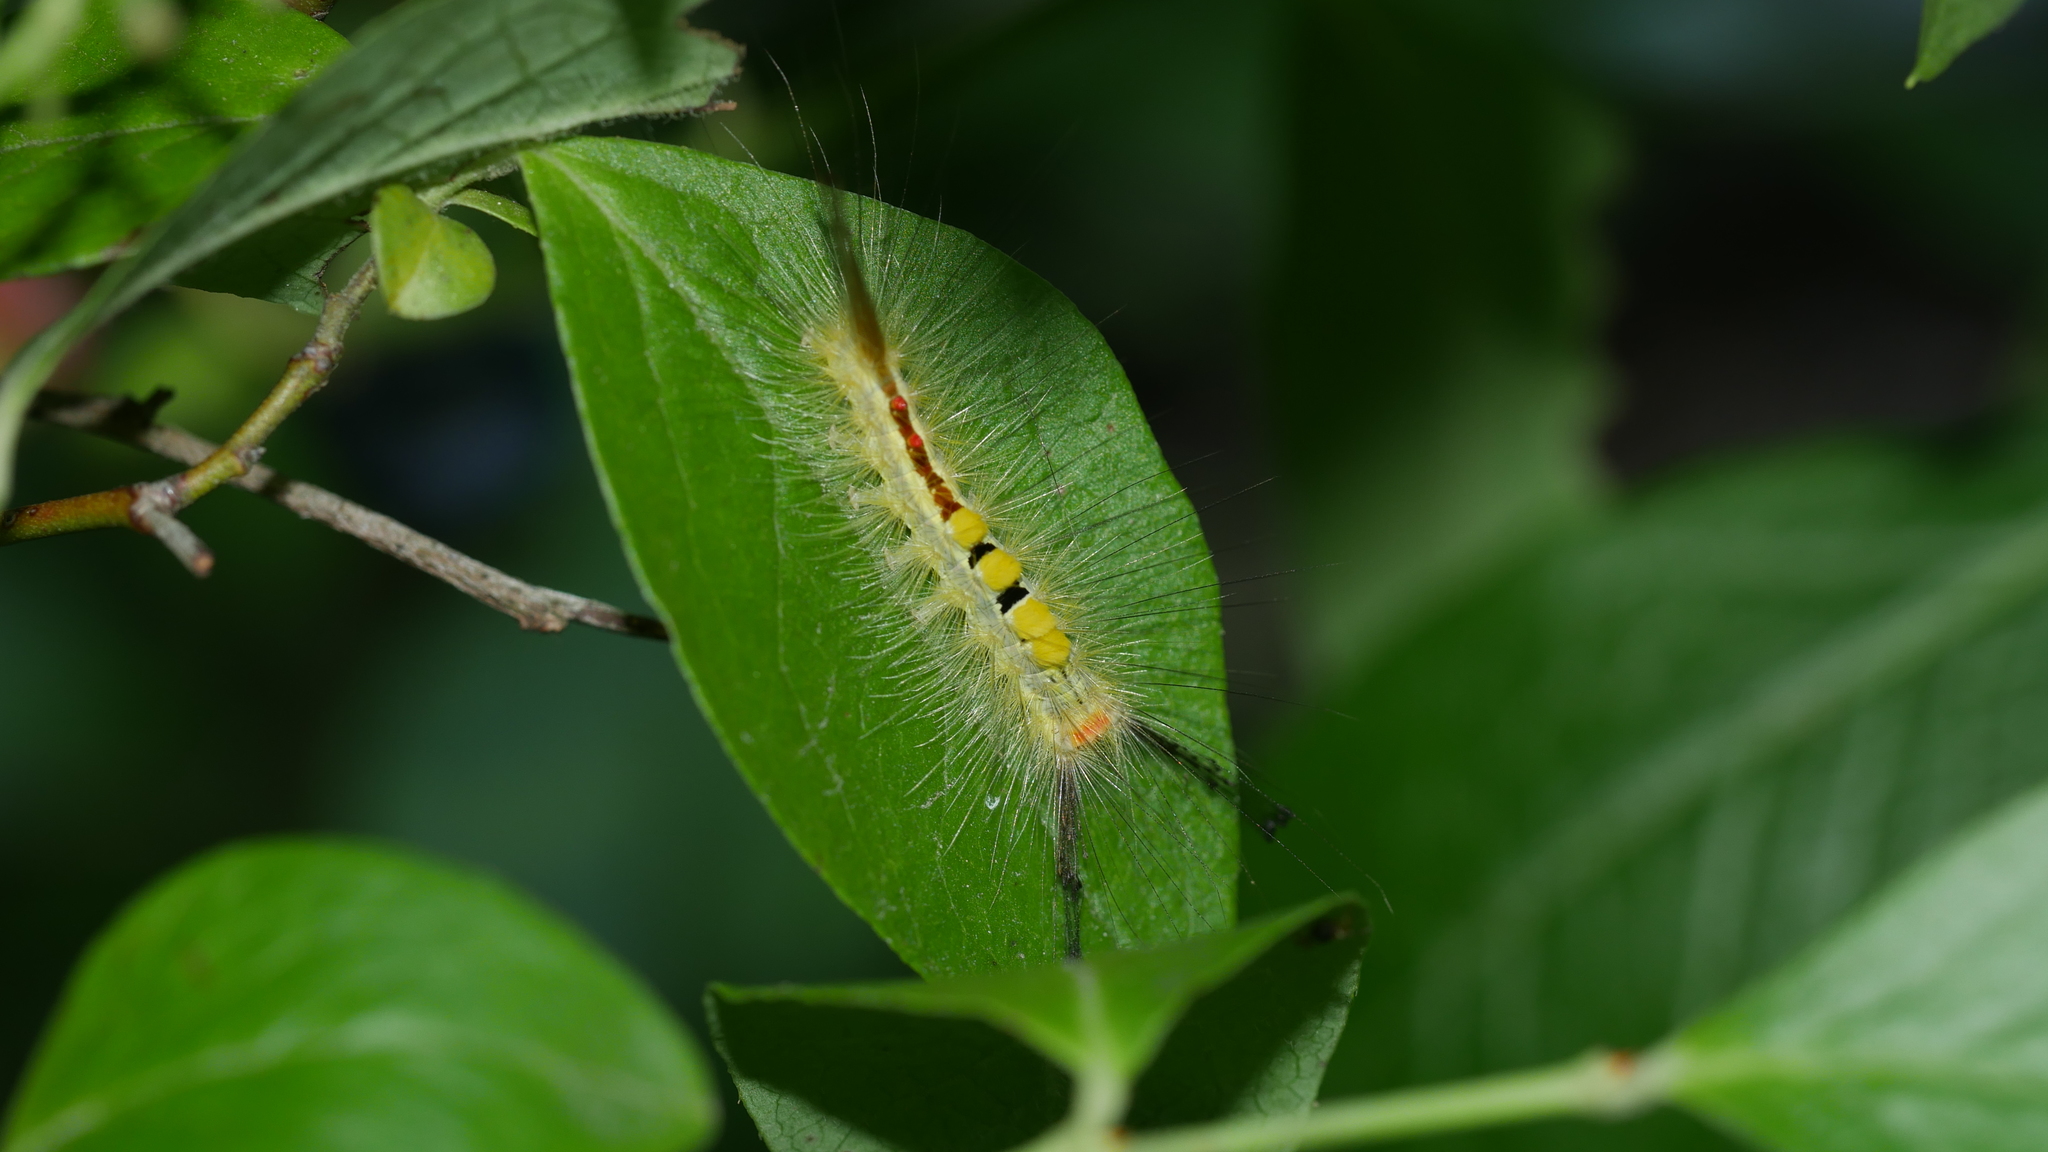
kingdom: Animalia
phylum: Arthropoda
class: Insecta
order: Lepidoptera
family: Erebidae
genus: Orgyia
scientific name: Orgyia leucostigma
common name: White-marked tussock moth
